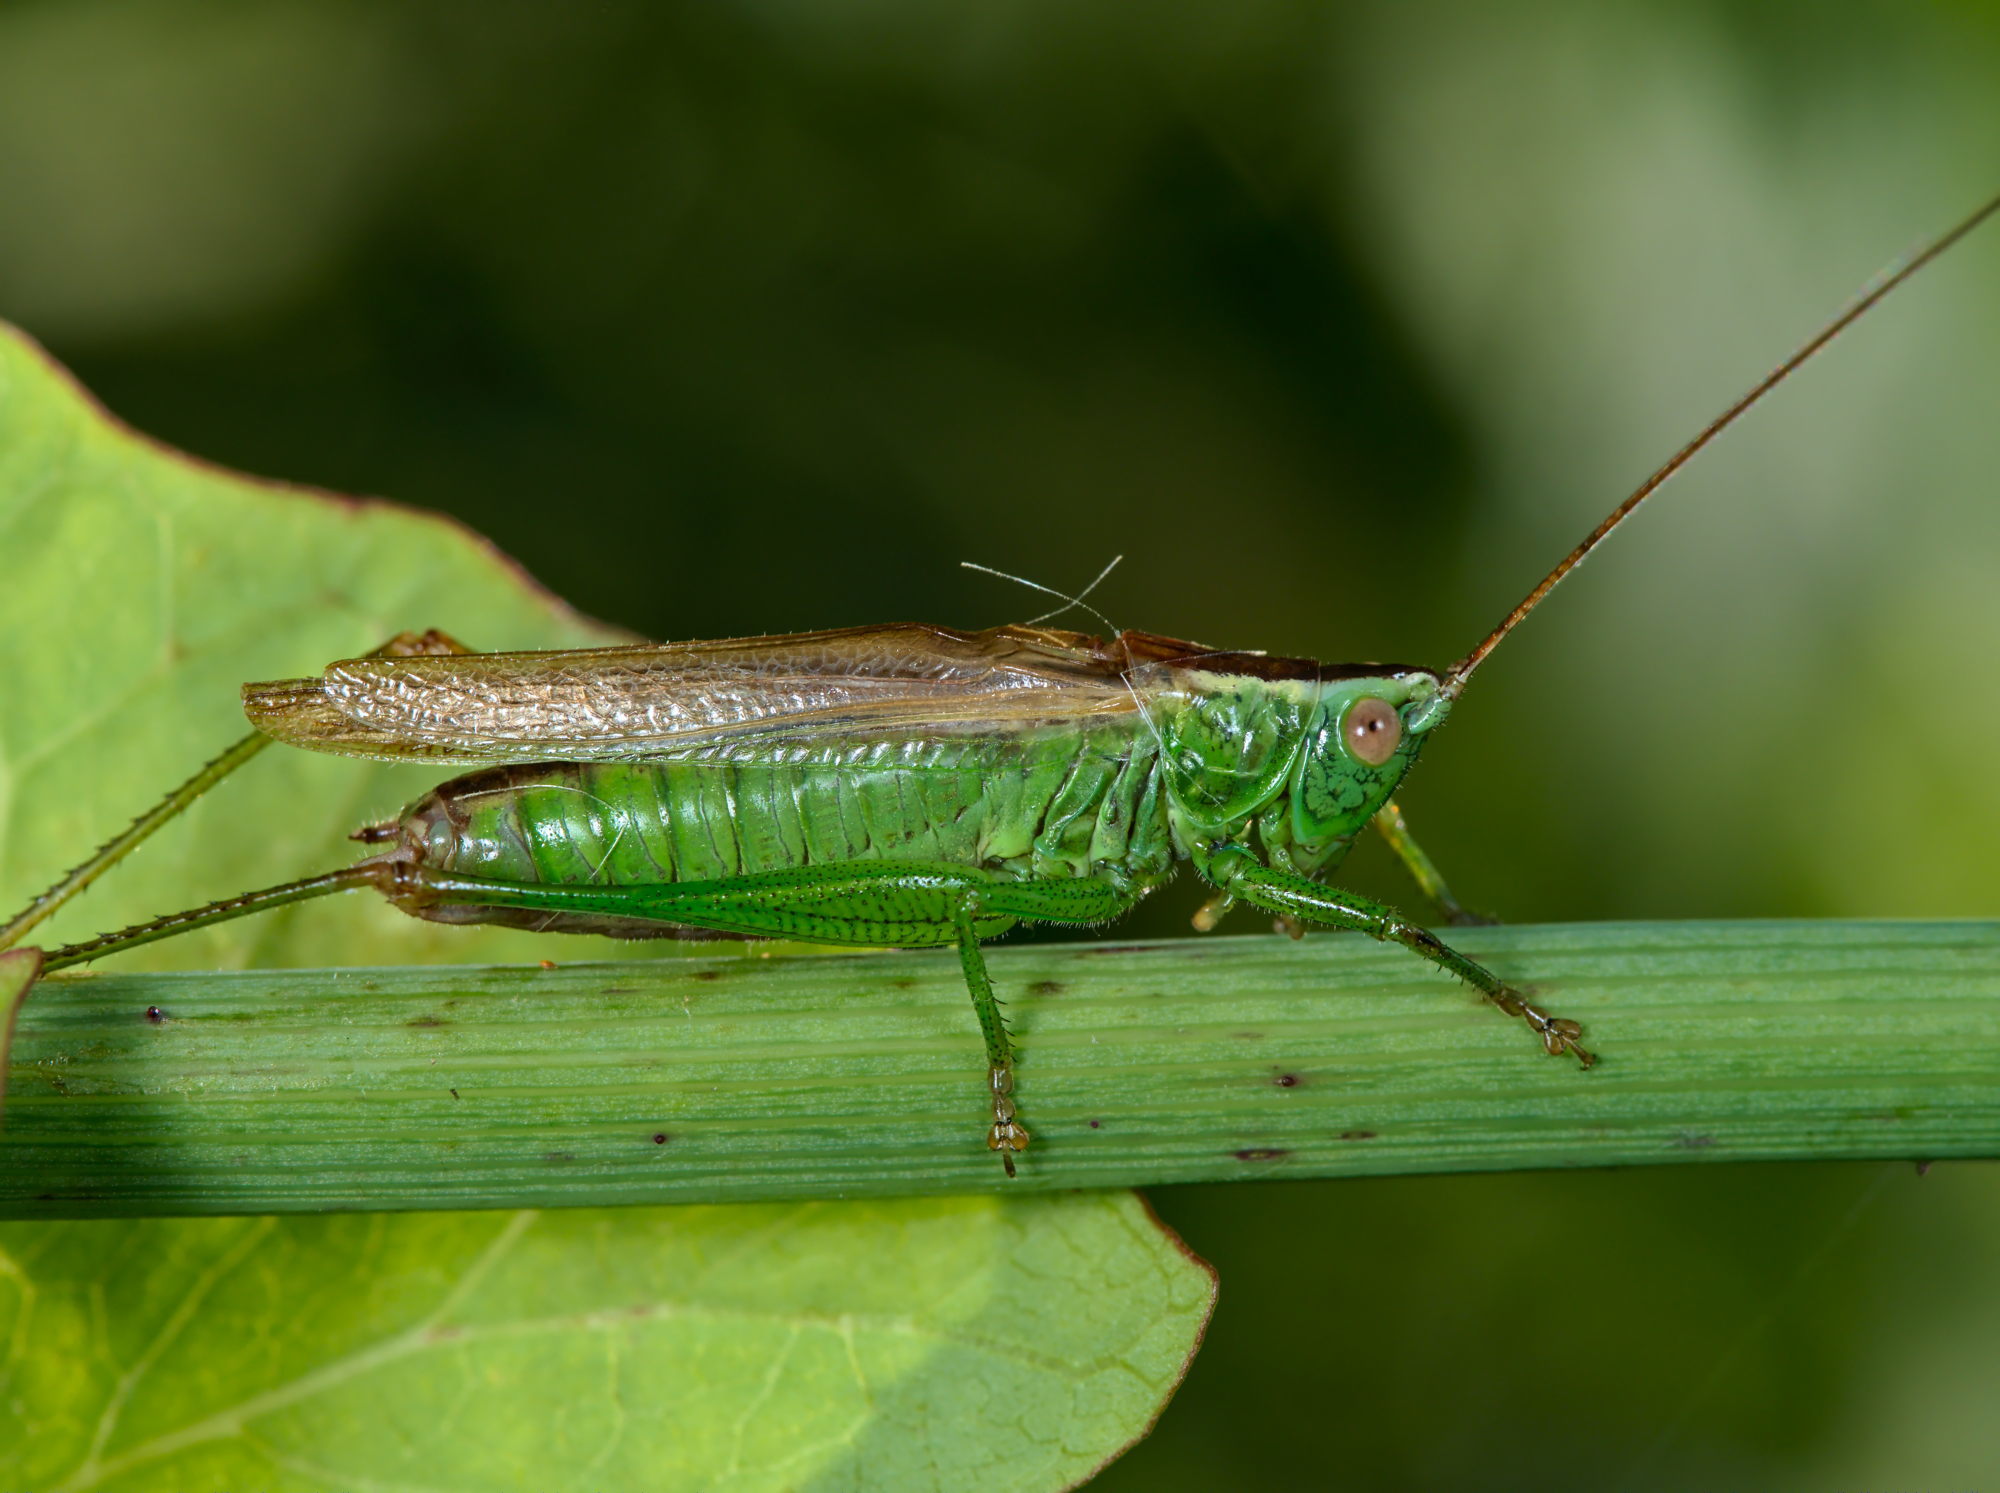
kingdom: Animalia
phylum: Arthropoda
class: Insecta
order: Orthoptera
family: Tettigoniidae
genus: Conocephalus
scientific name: Conocephalus fuscus
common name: Long-winged conehead
